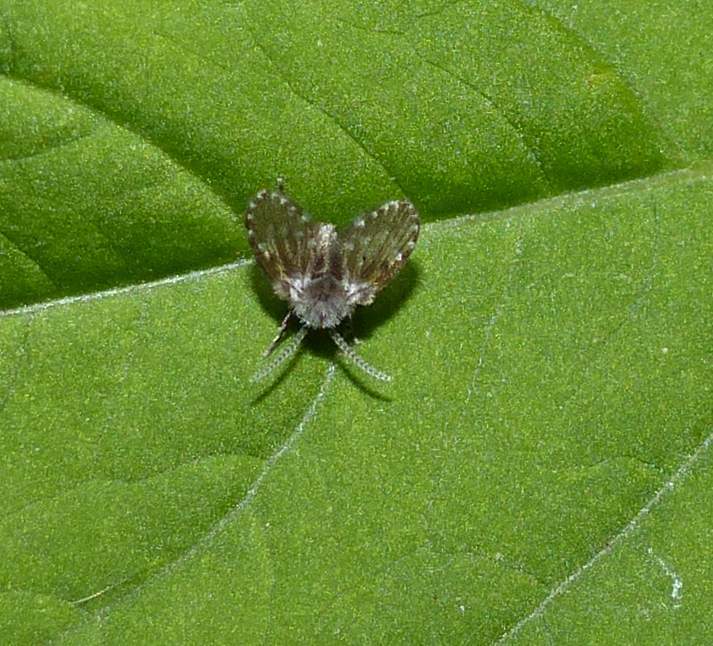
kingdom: Animalia
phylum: Arthropoda
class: Insecta
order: Diptera
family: Psychodidae
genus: Clogmia
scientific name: Clogmia albipunctatus
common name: White-spotted moth fly
